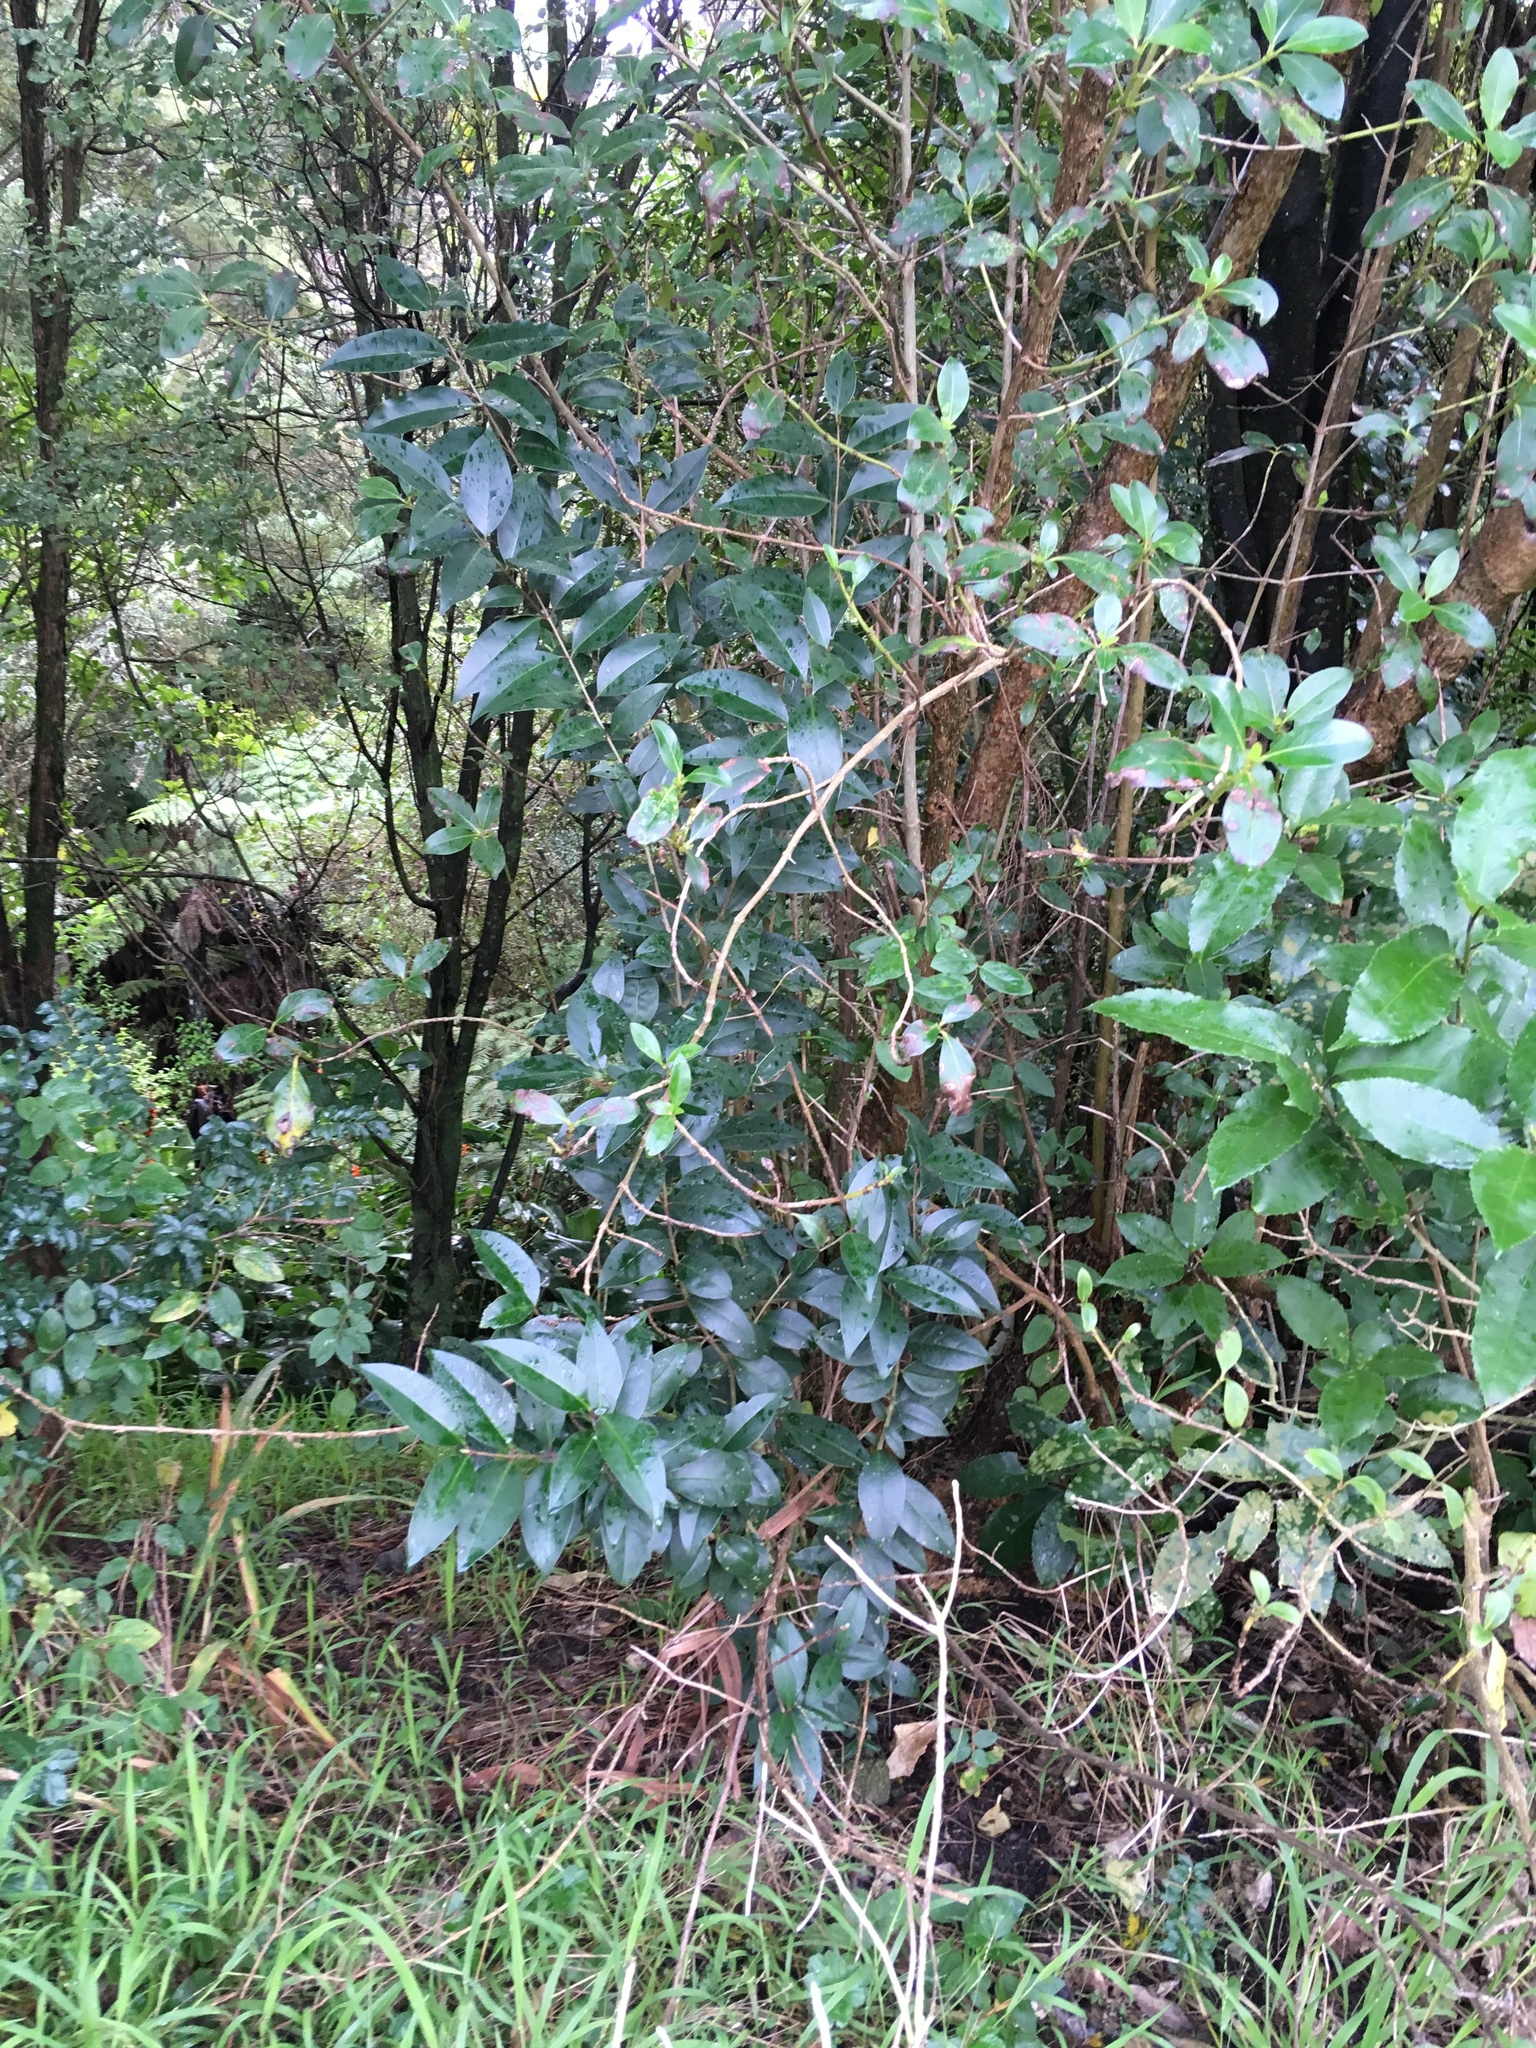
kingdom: Plantae
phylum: Tracheophyta
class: Magnoliopsida
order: Lamiales
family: Oleaceae
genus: Ligustrum
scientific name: Ligustrum lucidum
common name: Glossy privet
